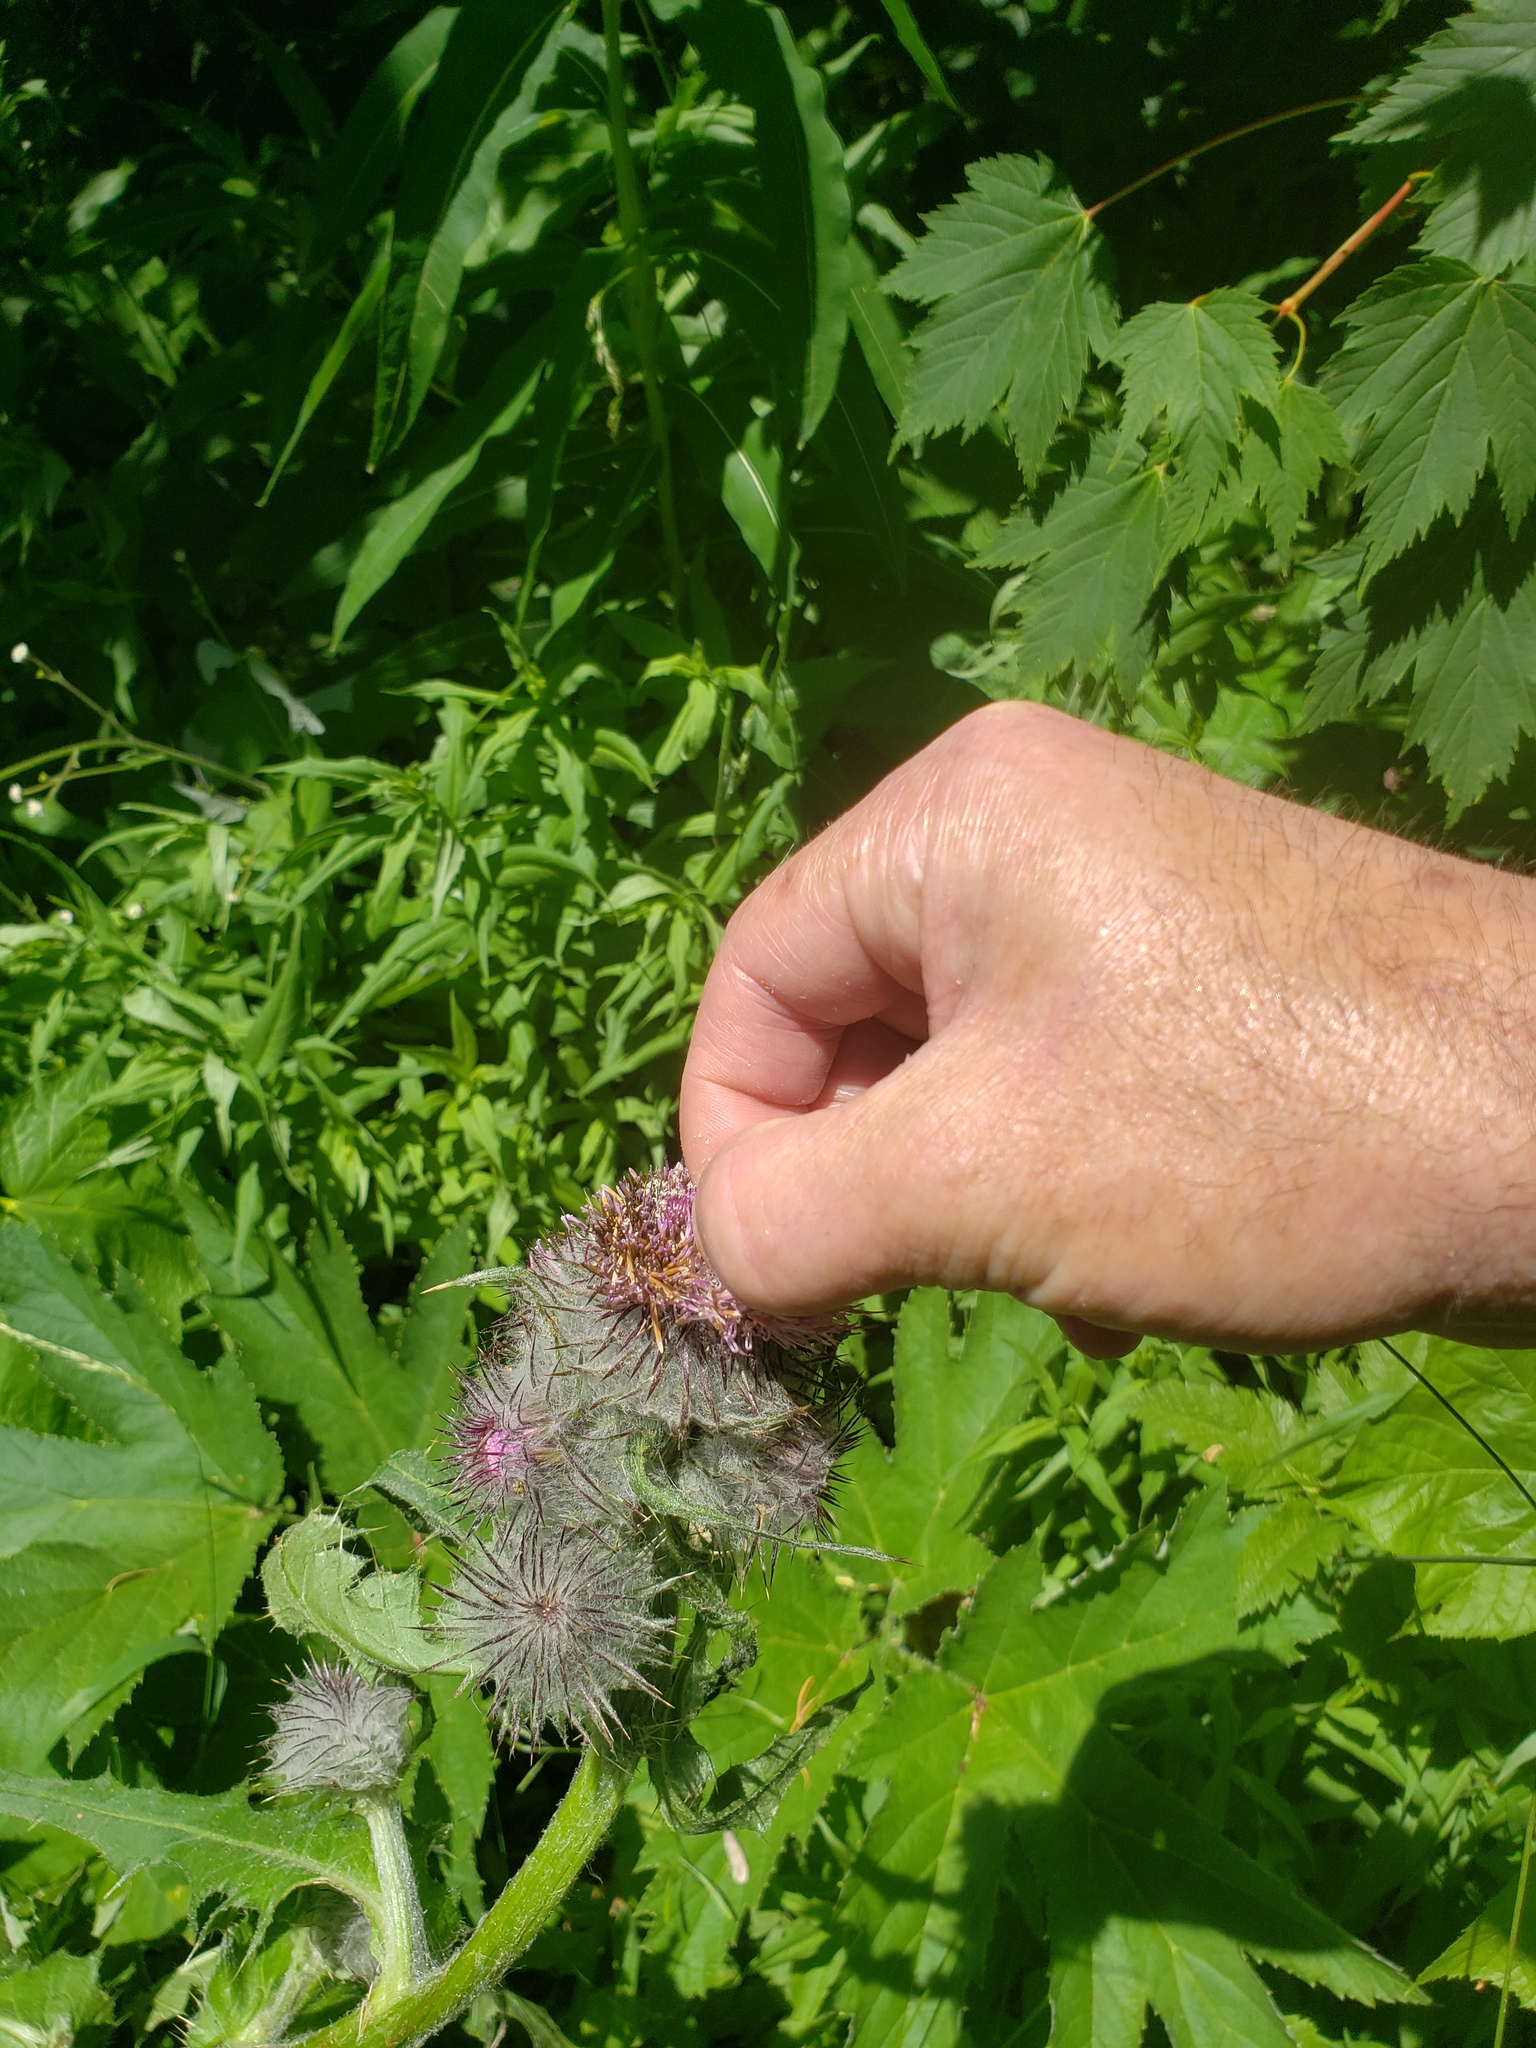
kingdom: Plantae
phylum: Tracheophyta
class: Magnoliopsida
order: Asterales
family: Asteraceae
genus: Cirsium
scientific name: Cirsium edule
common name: Indian thistle
